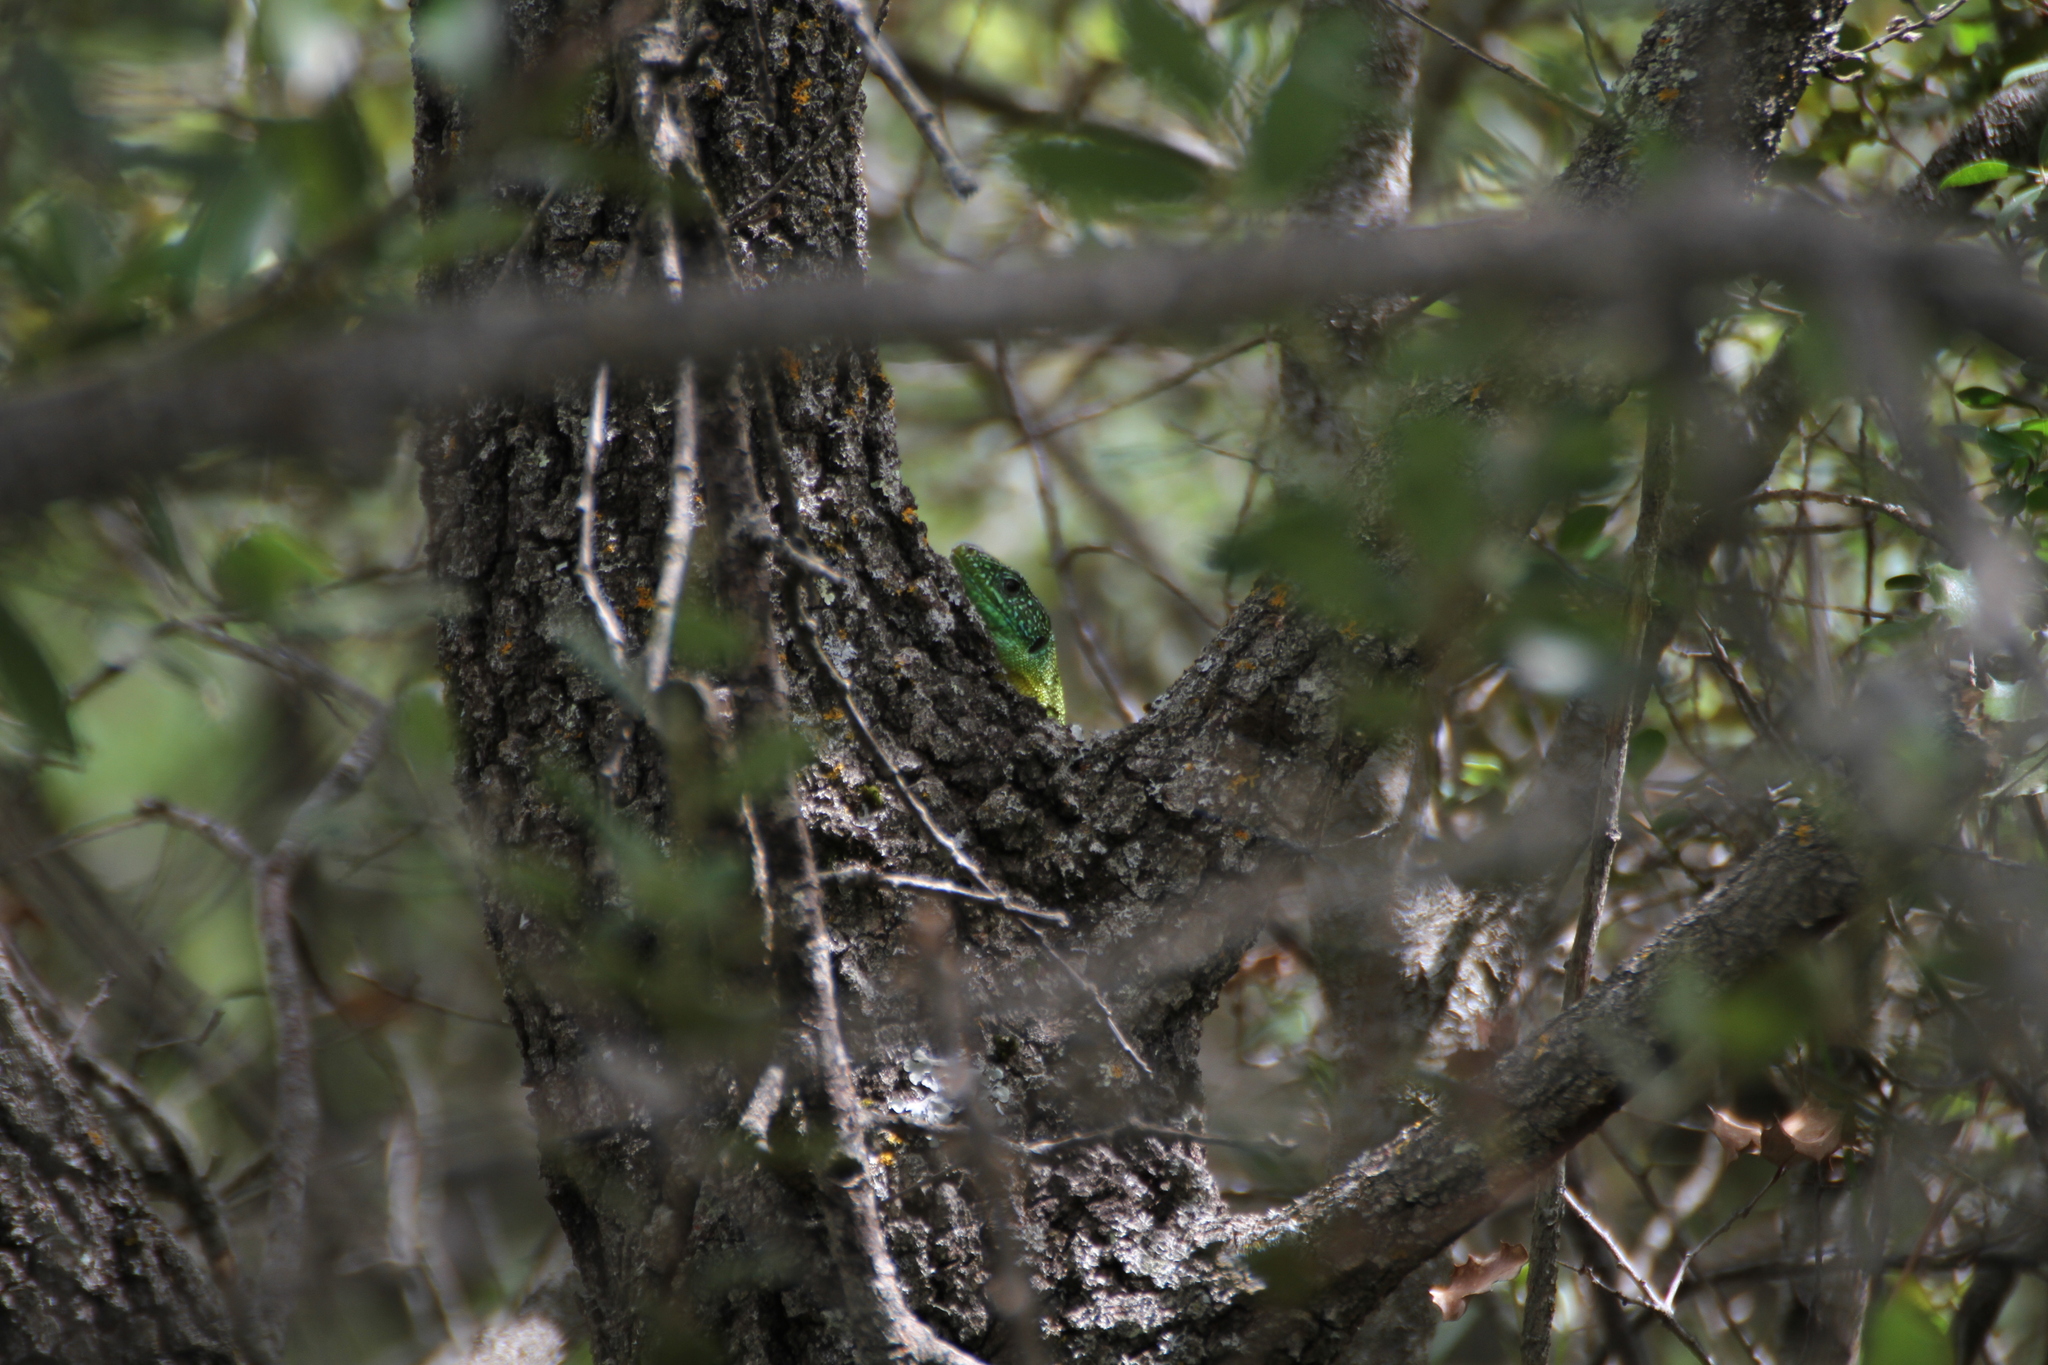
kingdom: Animalia
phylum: Chordata
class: Squamata
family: Lacertidae
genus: Lacerta
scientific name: Lacerta bilineata
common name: Western green lizard
